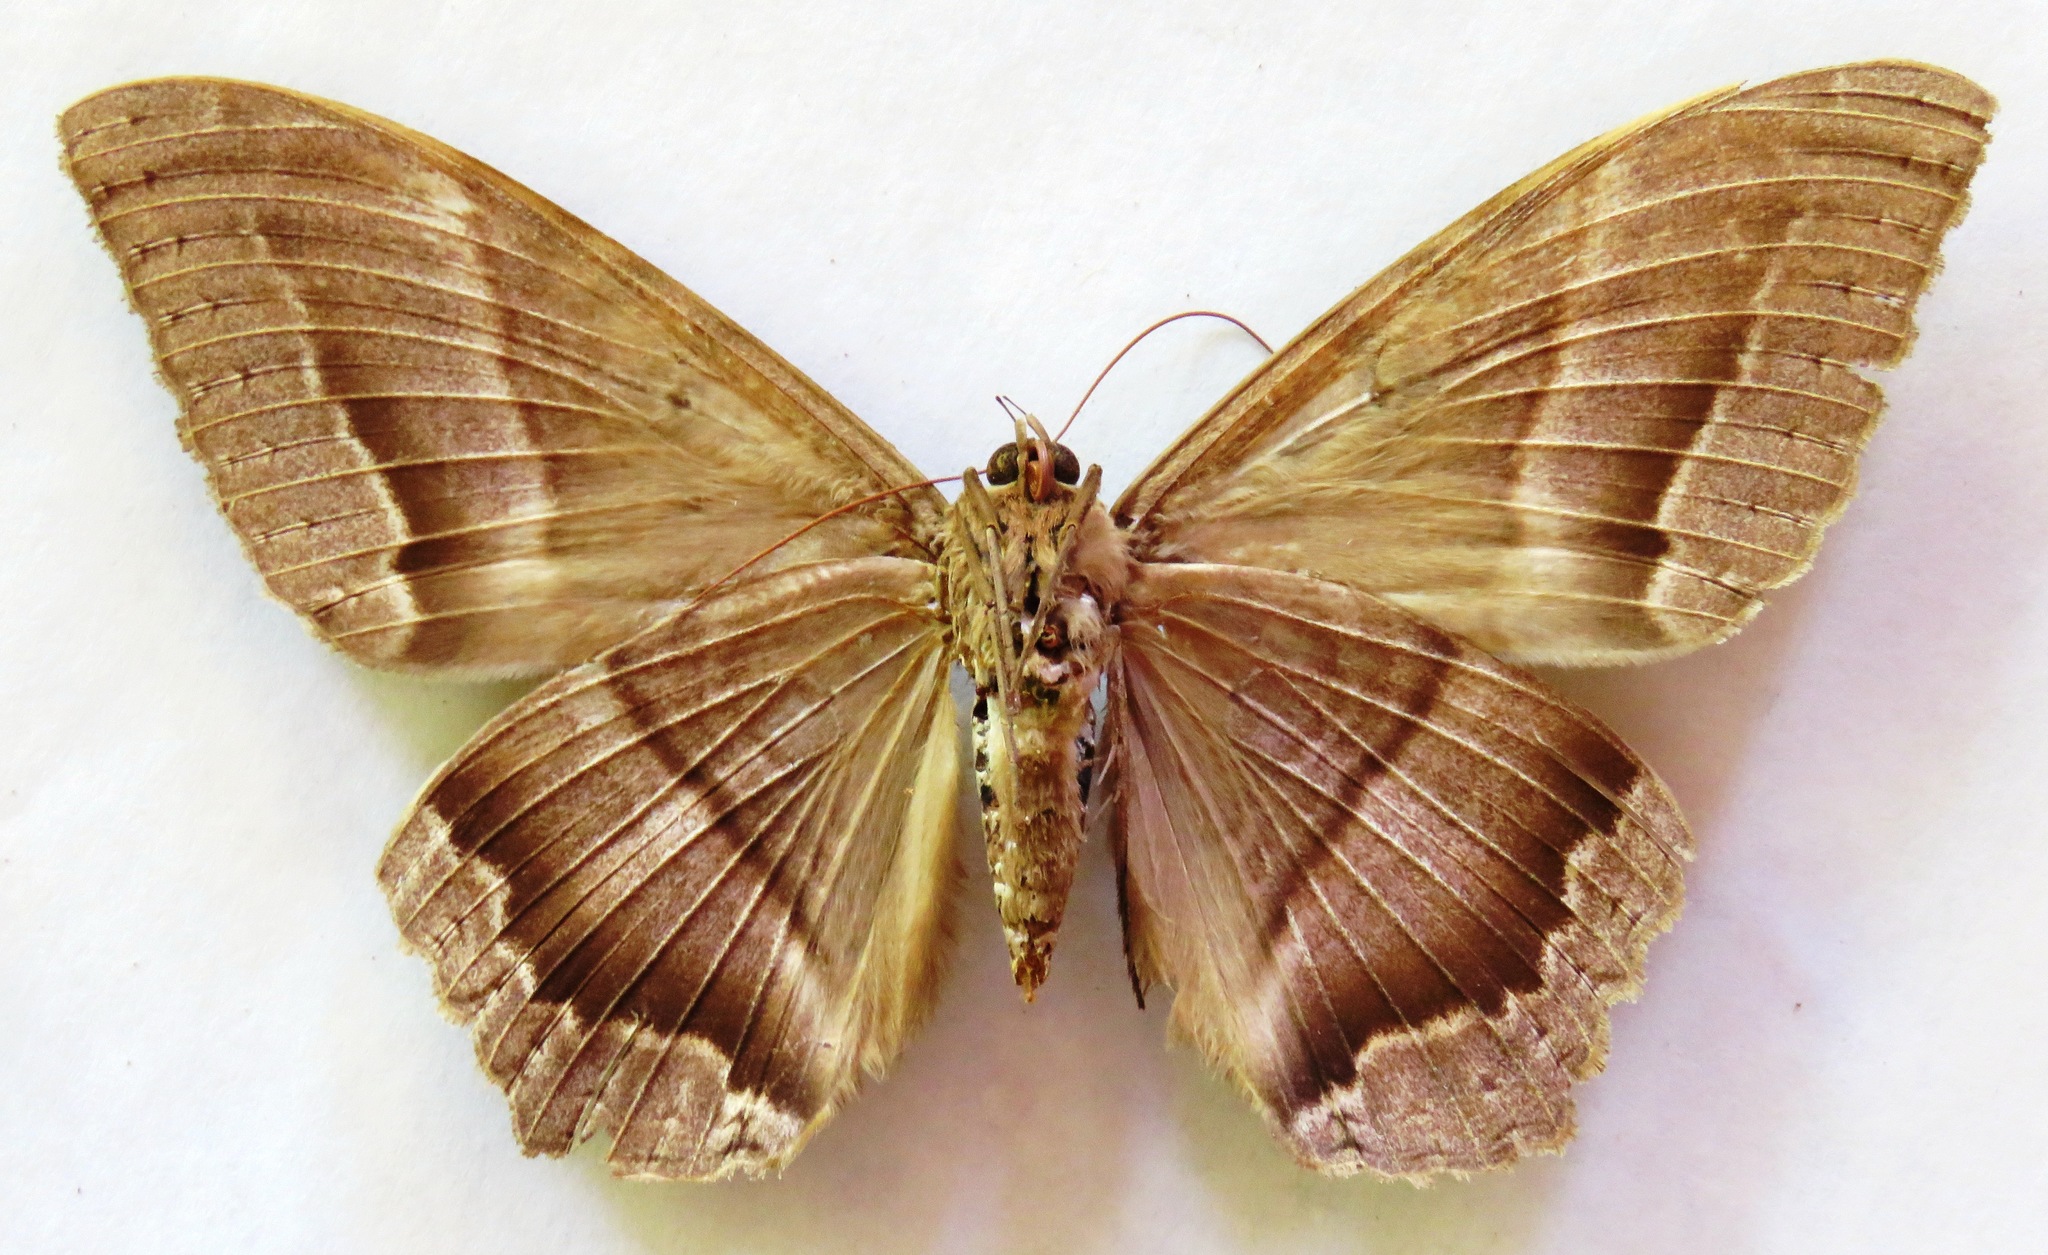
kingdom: Animalia
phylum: Arthropoda
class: Insecta
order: Lepidoptera
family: Erebidae
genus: Ascalapha
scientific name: Ascalapha odorata
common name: Black witch
